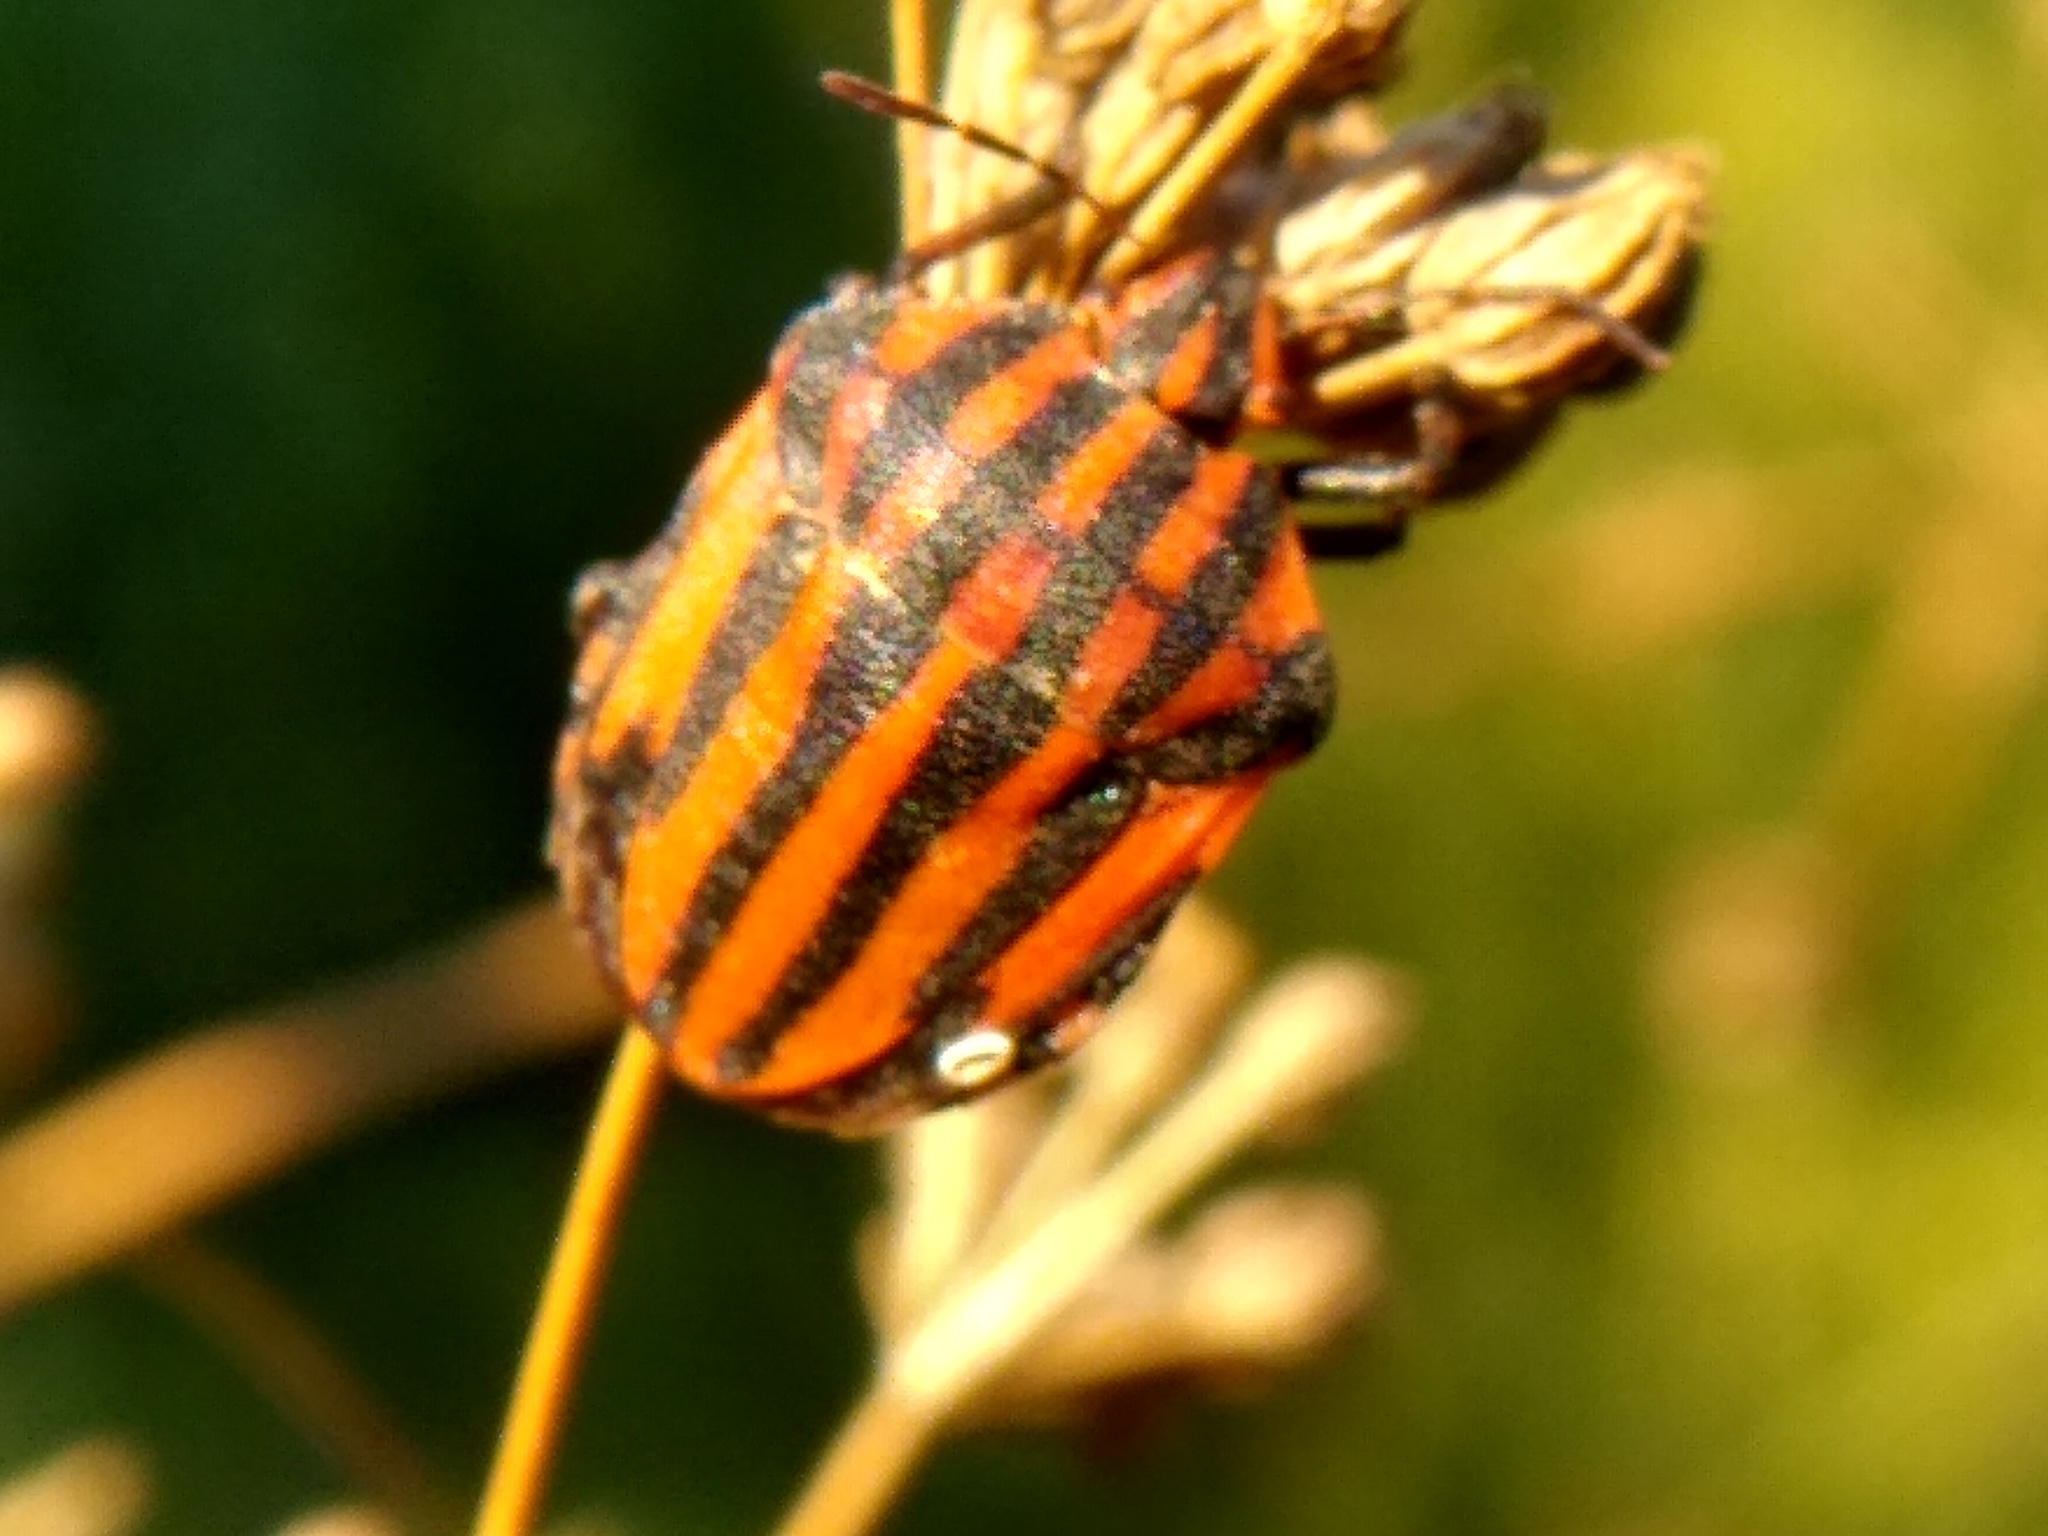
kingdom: Animalia
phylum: Arthropoda
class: Insecta
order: Hemiptera
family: Pentatomidae
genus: Graphosoma
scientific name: Graphosoma italicum
